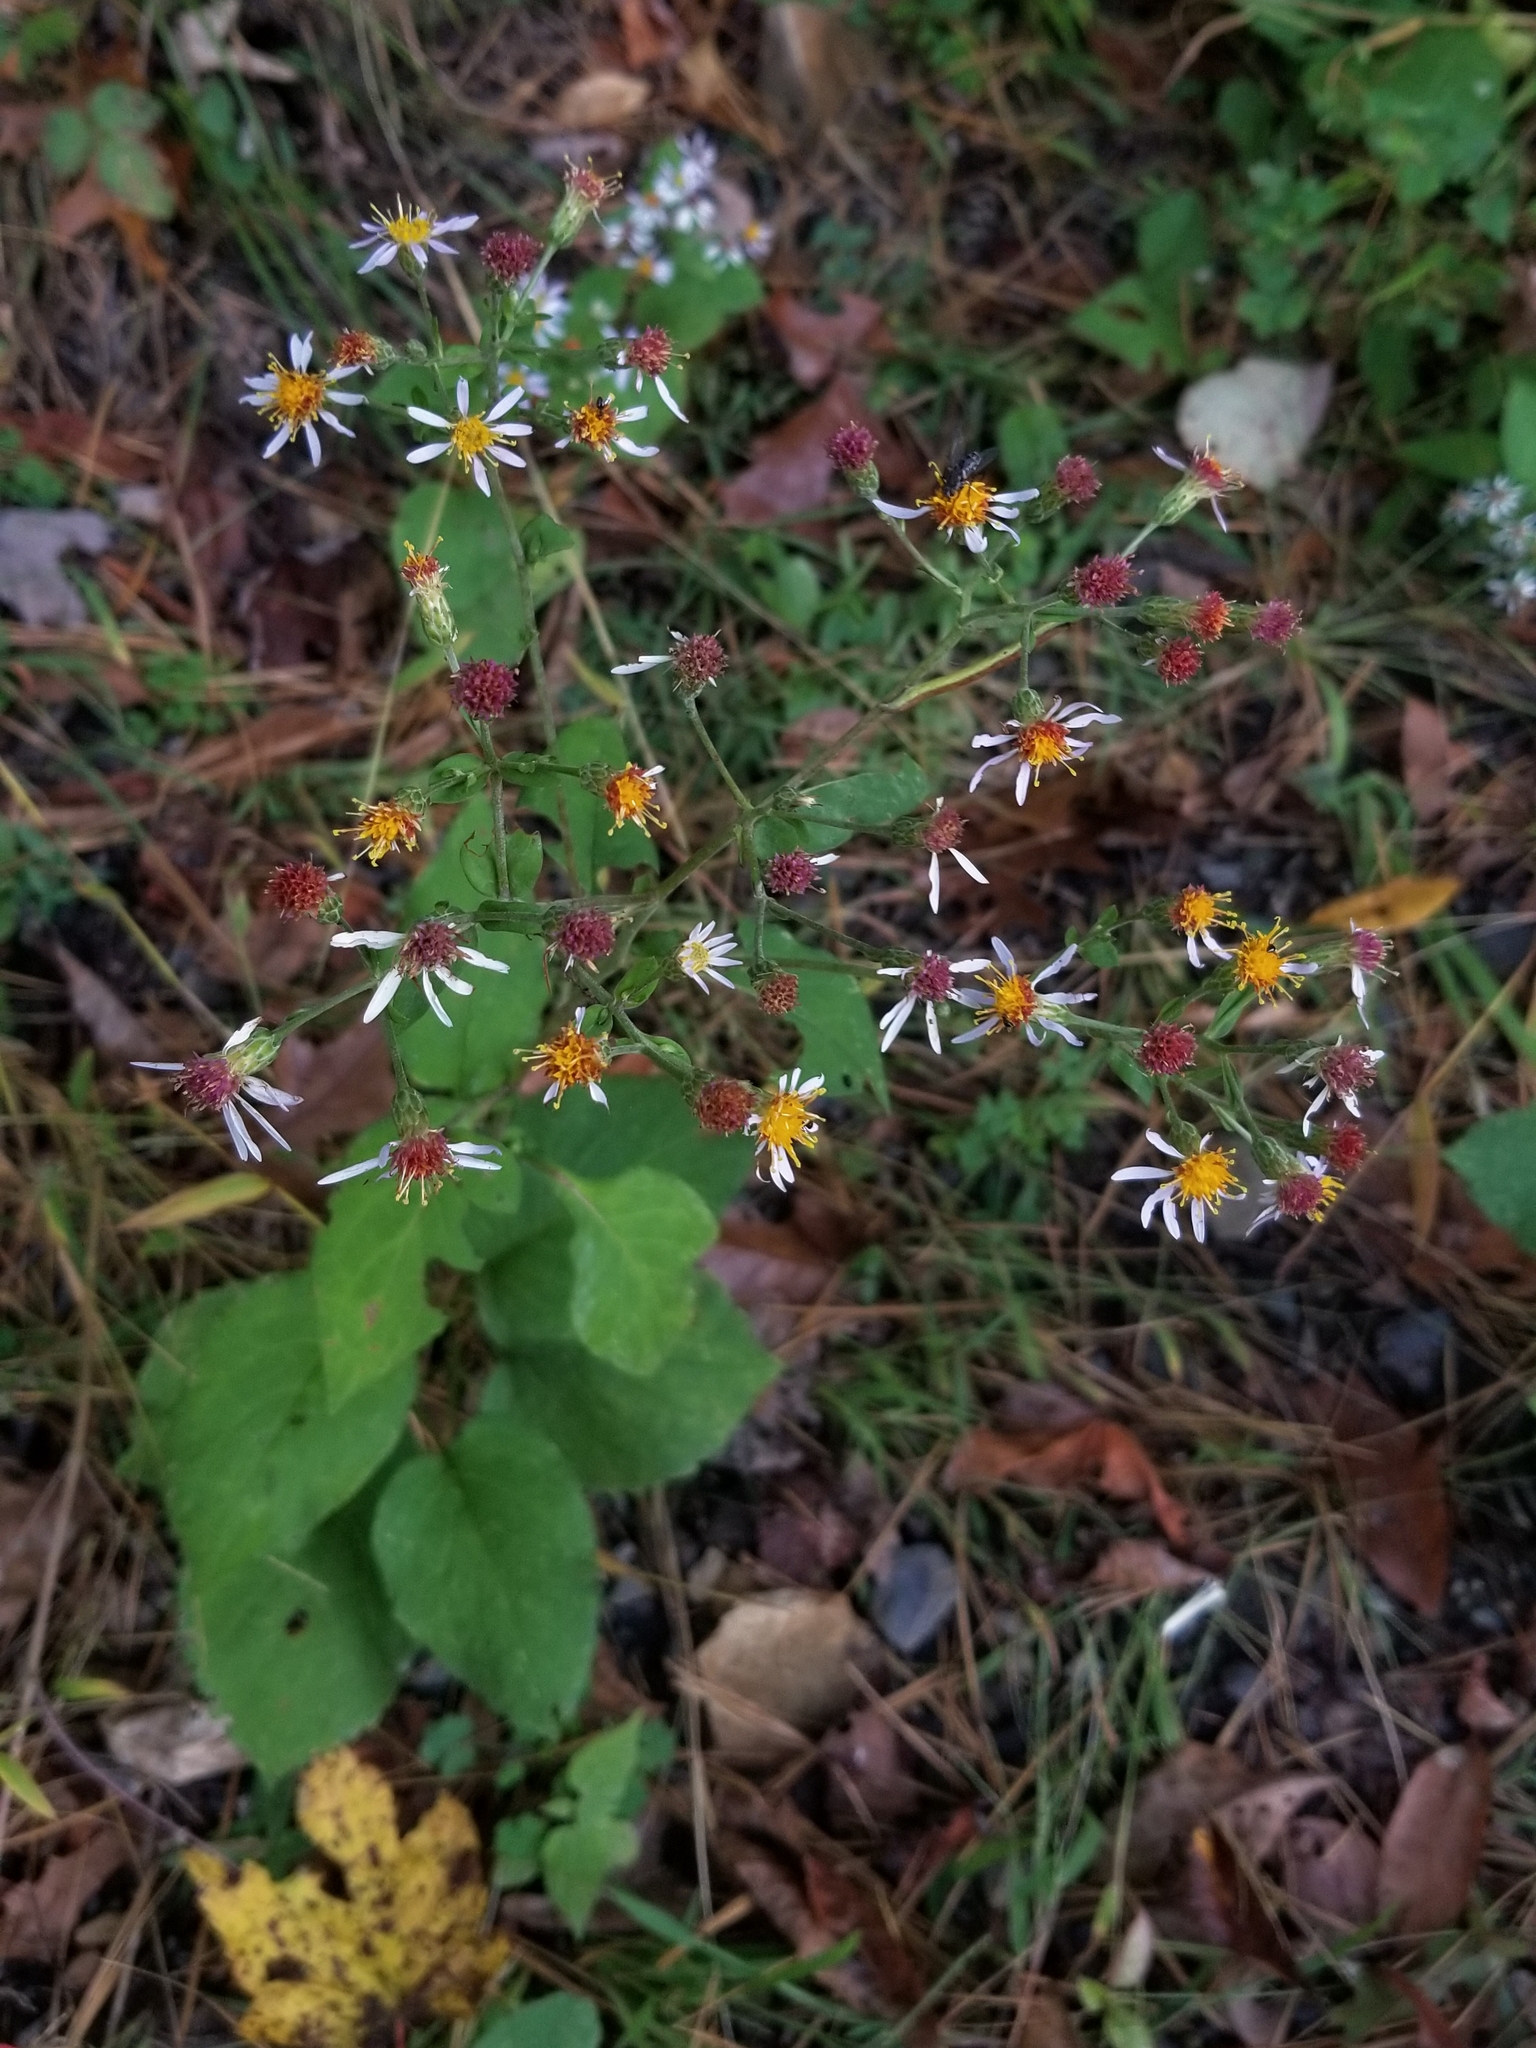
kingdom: Plantae
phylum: Tracheophyta
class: Magnoliopsida
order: Asterales
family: Asteraceae
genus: Eurybia
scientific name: Eurybia macrophylla
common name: Big-leaved aster
